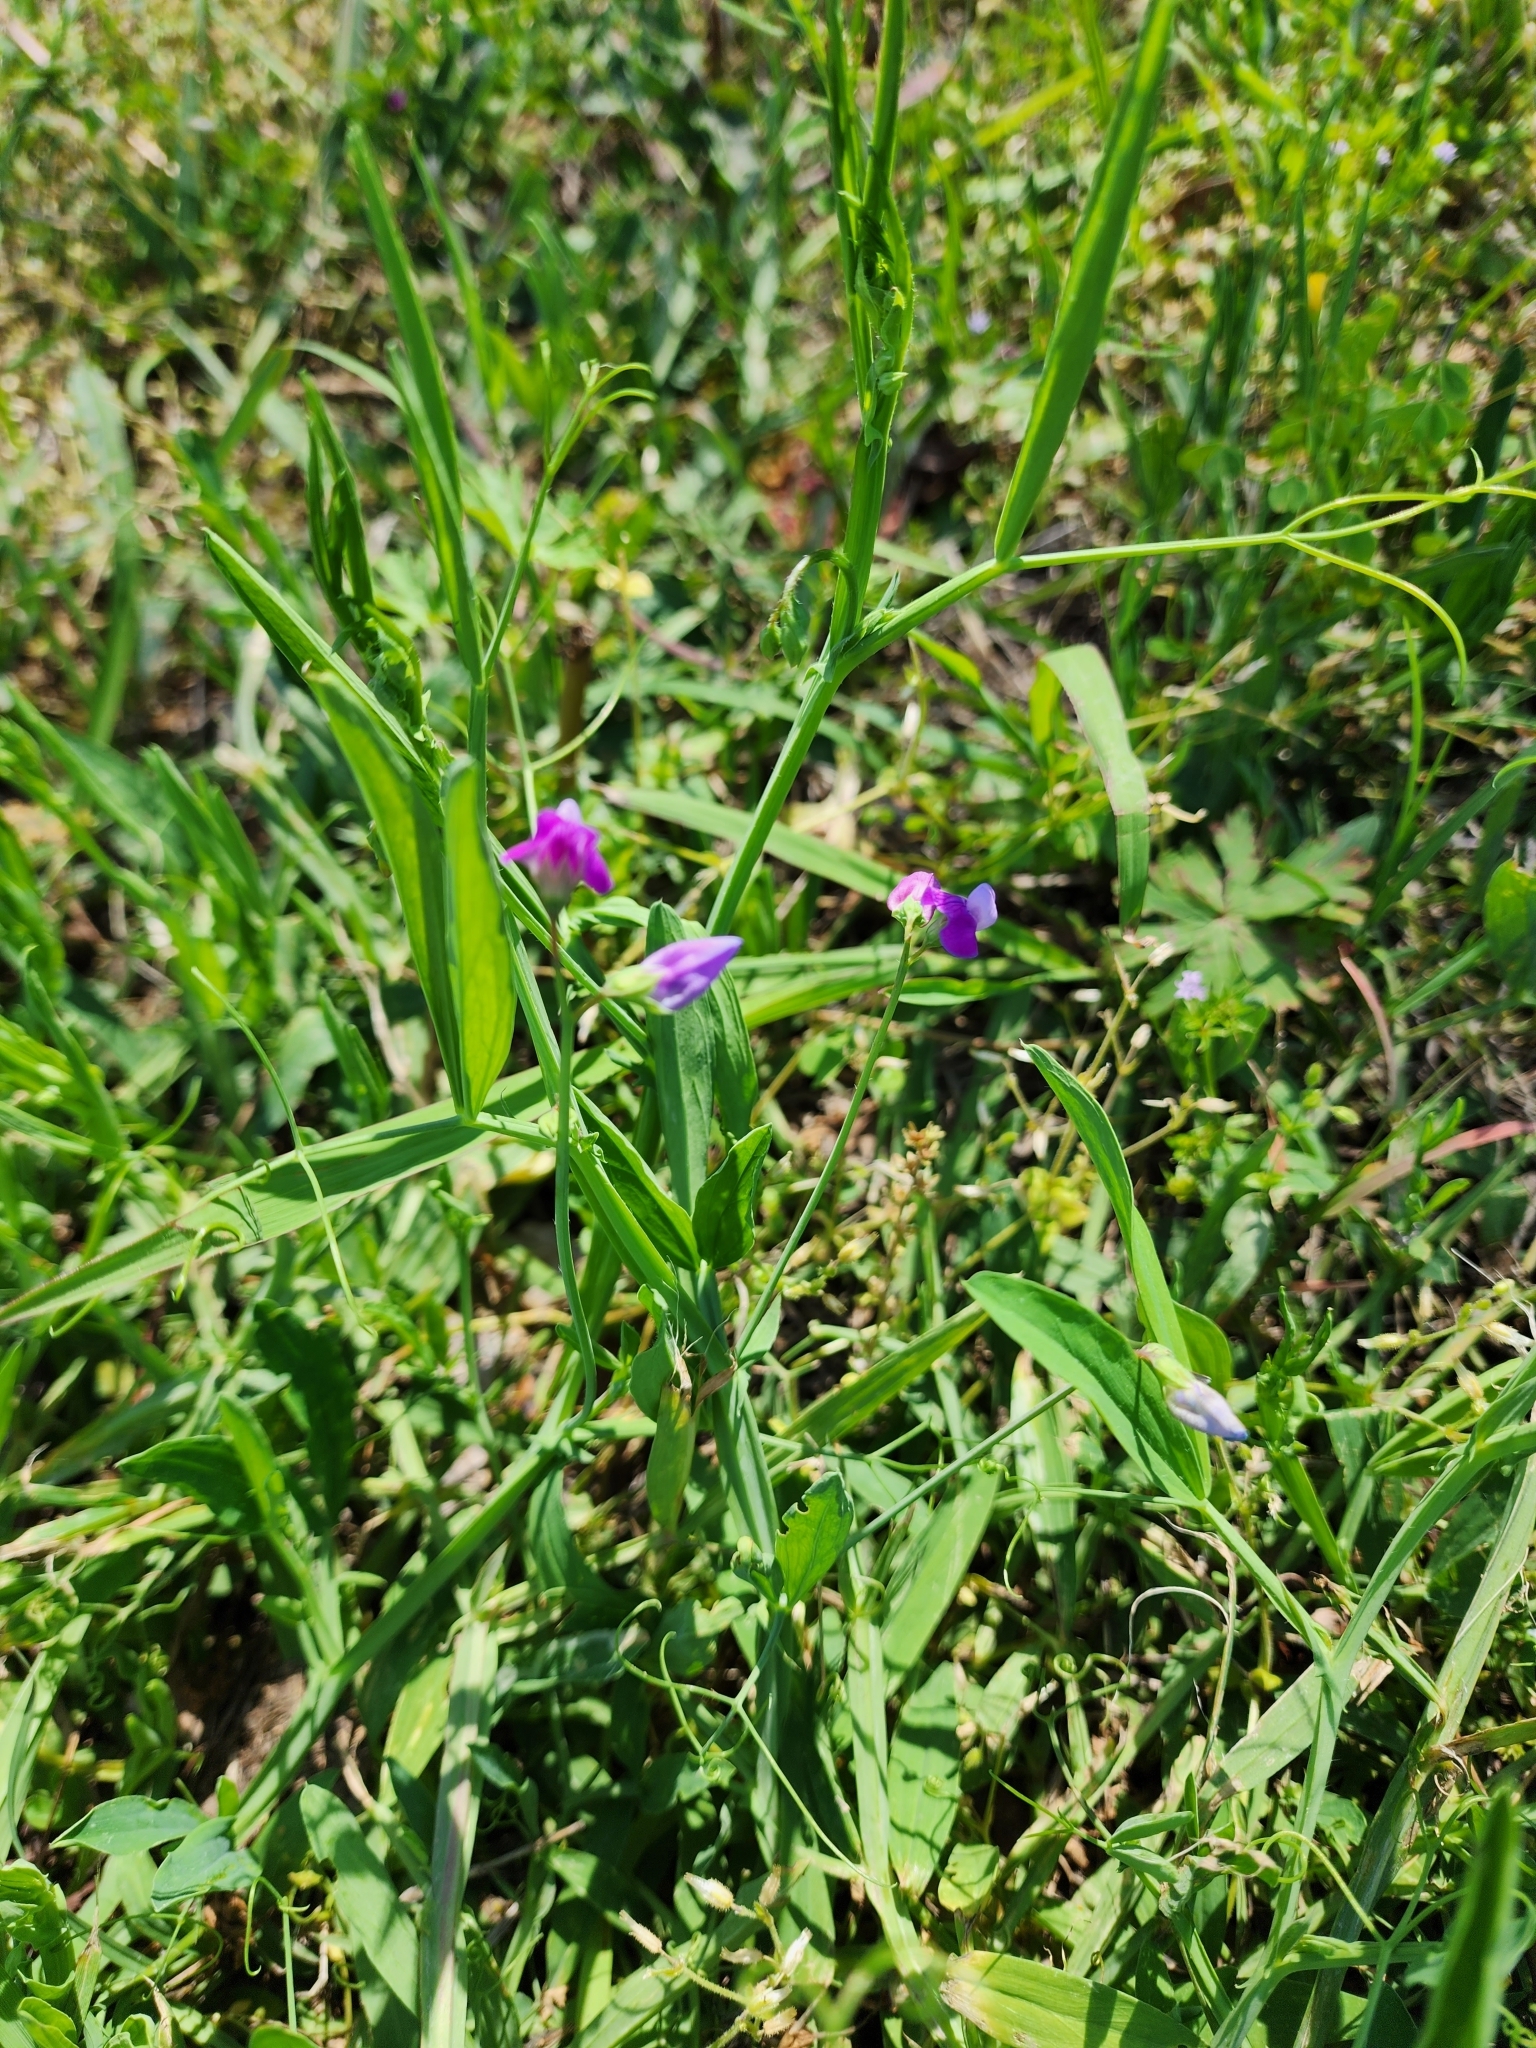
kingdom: Plantae
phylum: Tracheophyta
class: Magnoliopsida
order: Fabales
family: Fabaceae
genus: Lathyrus
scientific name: Lathyrus hirsutus
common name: Hairy vetchling
